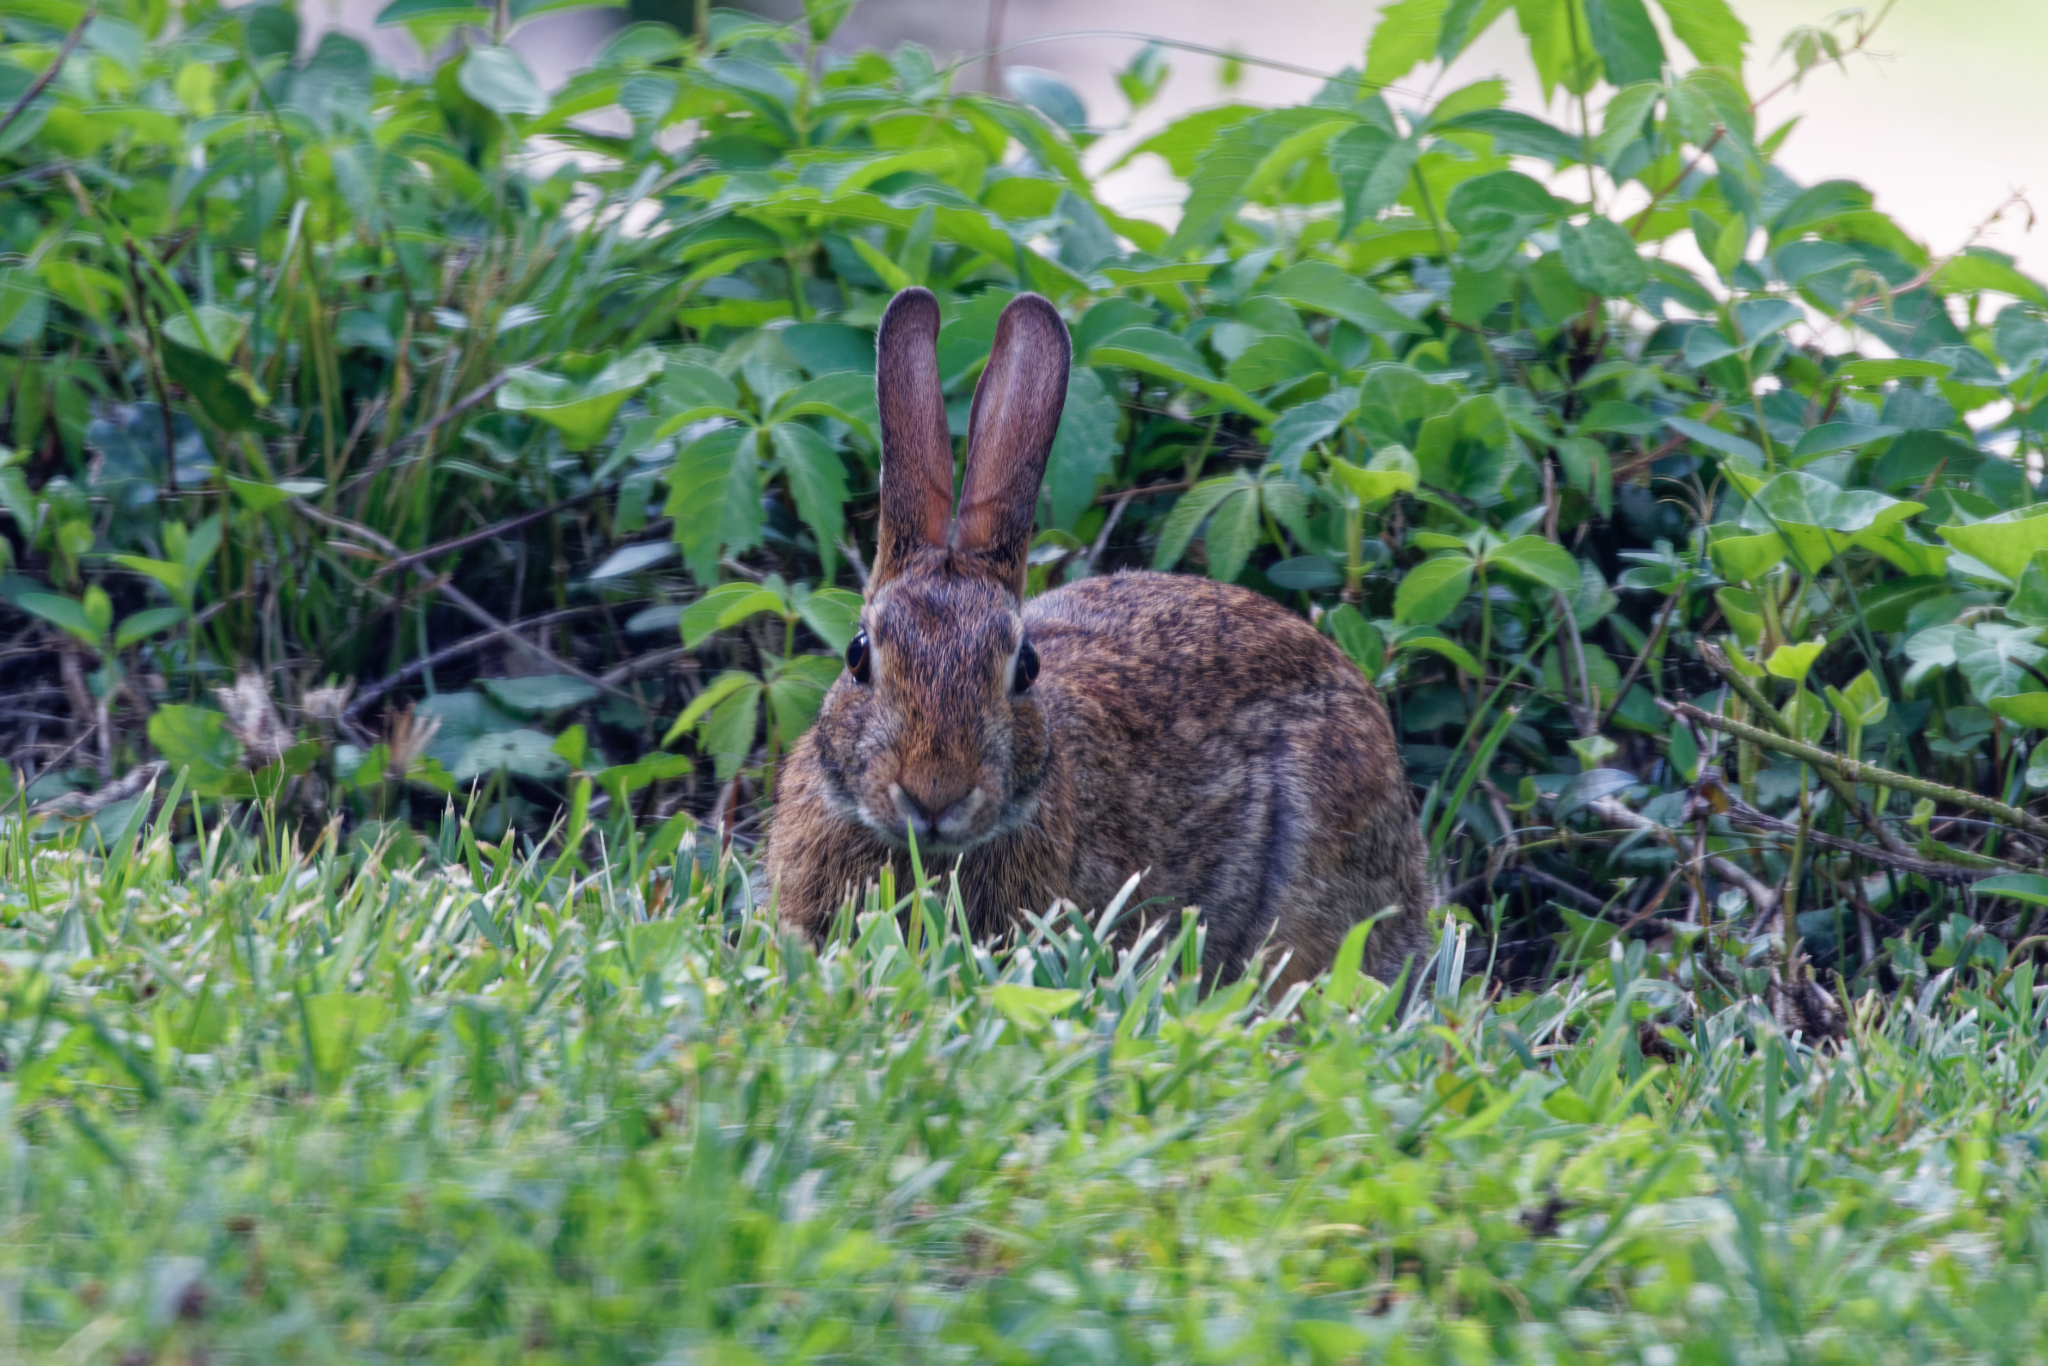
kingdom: Animalia
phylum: Chordata
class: Mammalia
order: Lagomorpha
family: Leporidae
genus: Sylvilagus
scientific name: Sylvilagus floridanus
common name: Eastern cottontail
